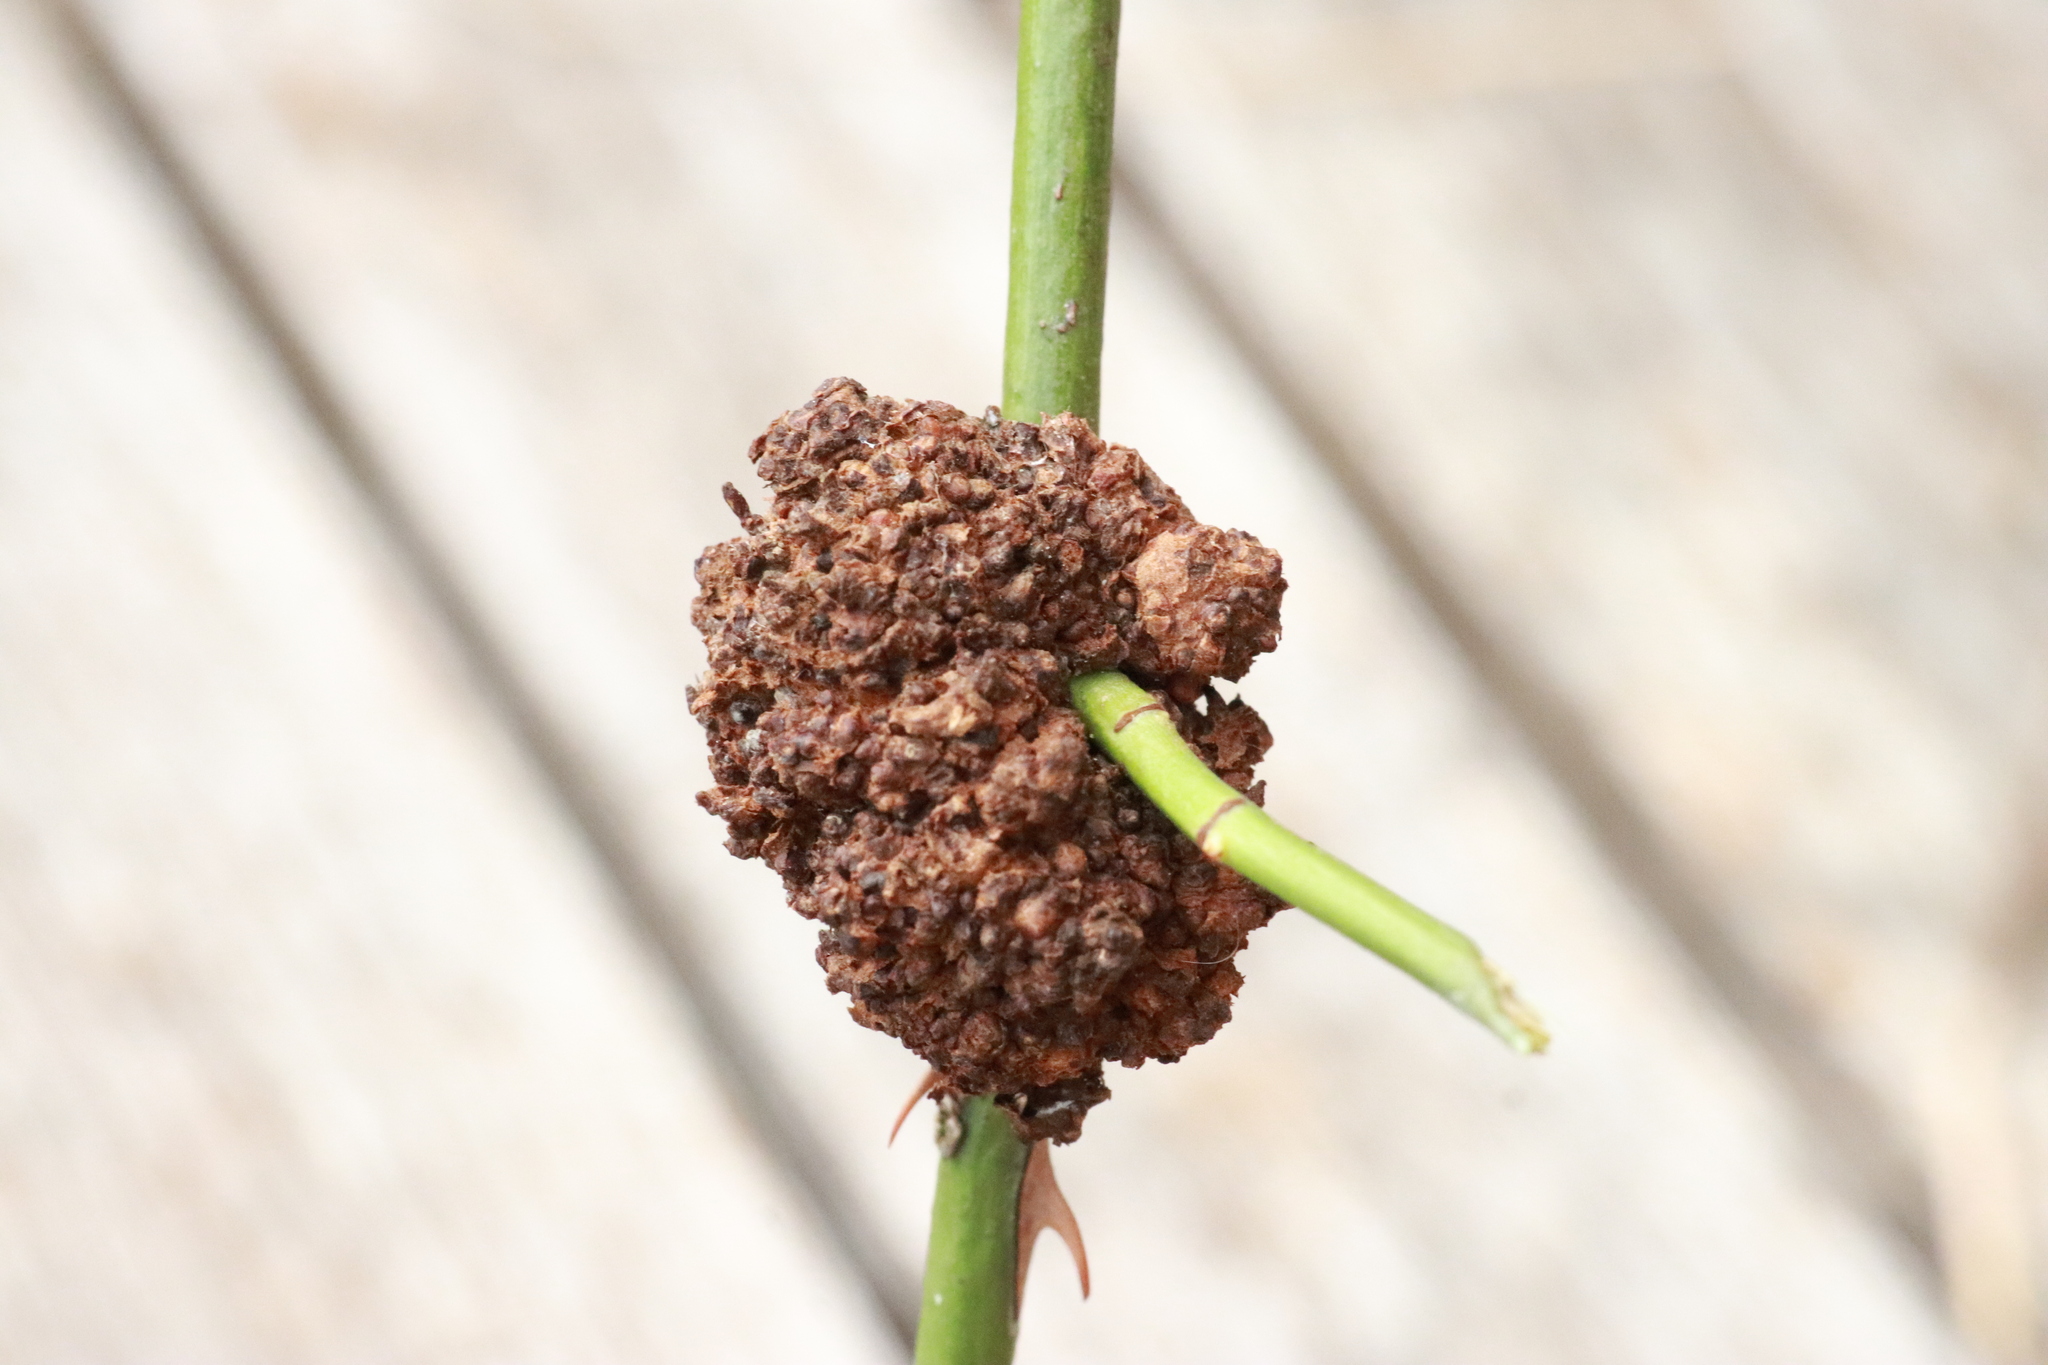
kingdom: Bacteria
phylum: Proteobacteria
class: Alphaproteobacteria
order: Rhizobiales
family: Rhizobiaceae
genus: Rhizobium
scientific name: Rhizobium Agrobacterium radiobacter
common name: Bacterial crown gall
